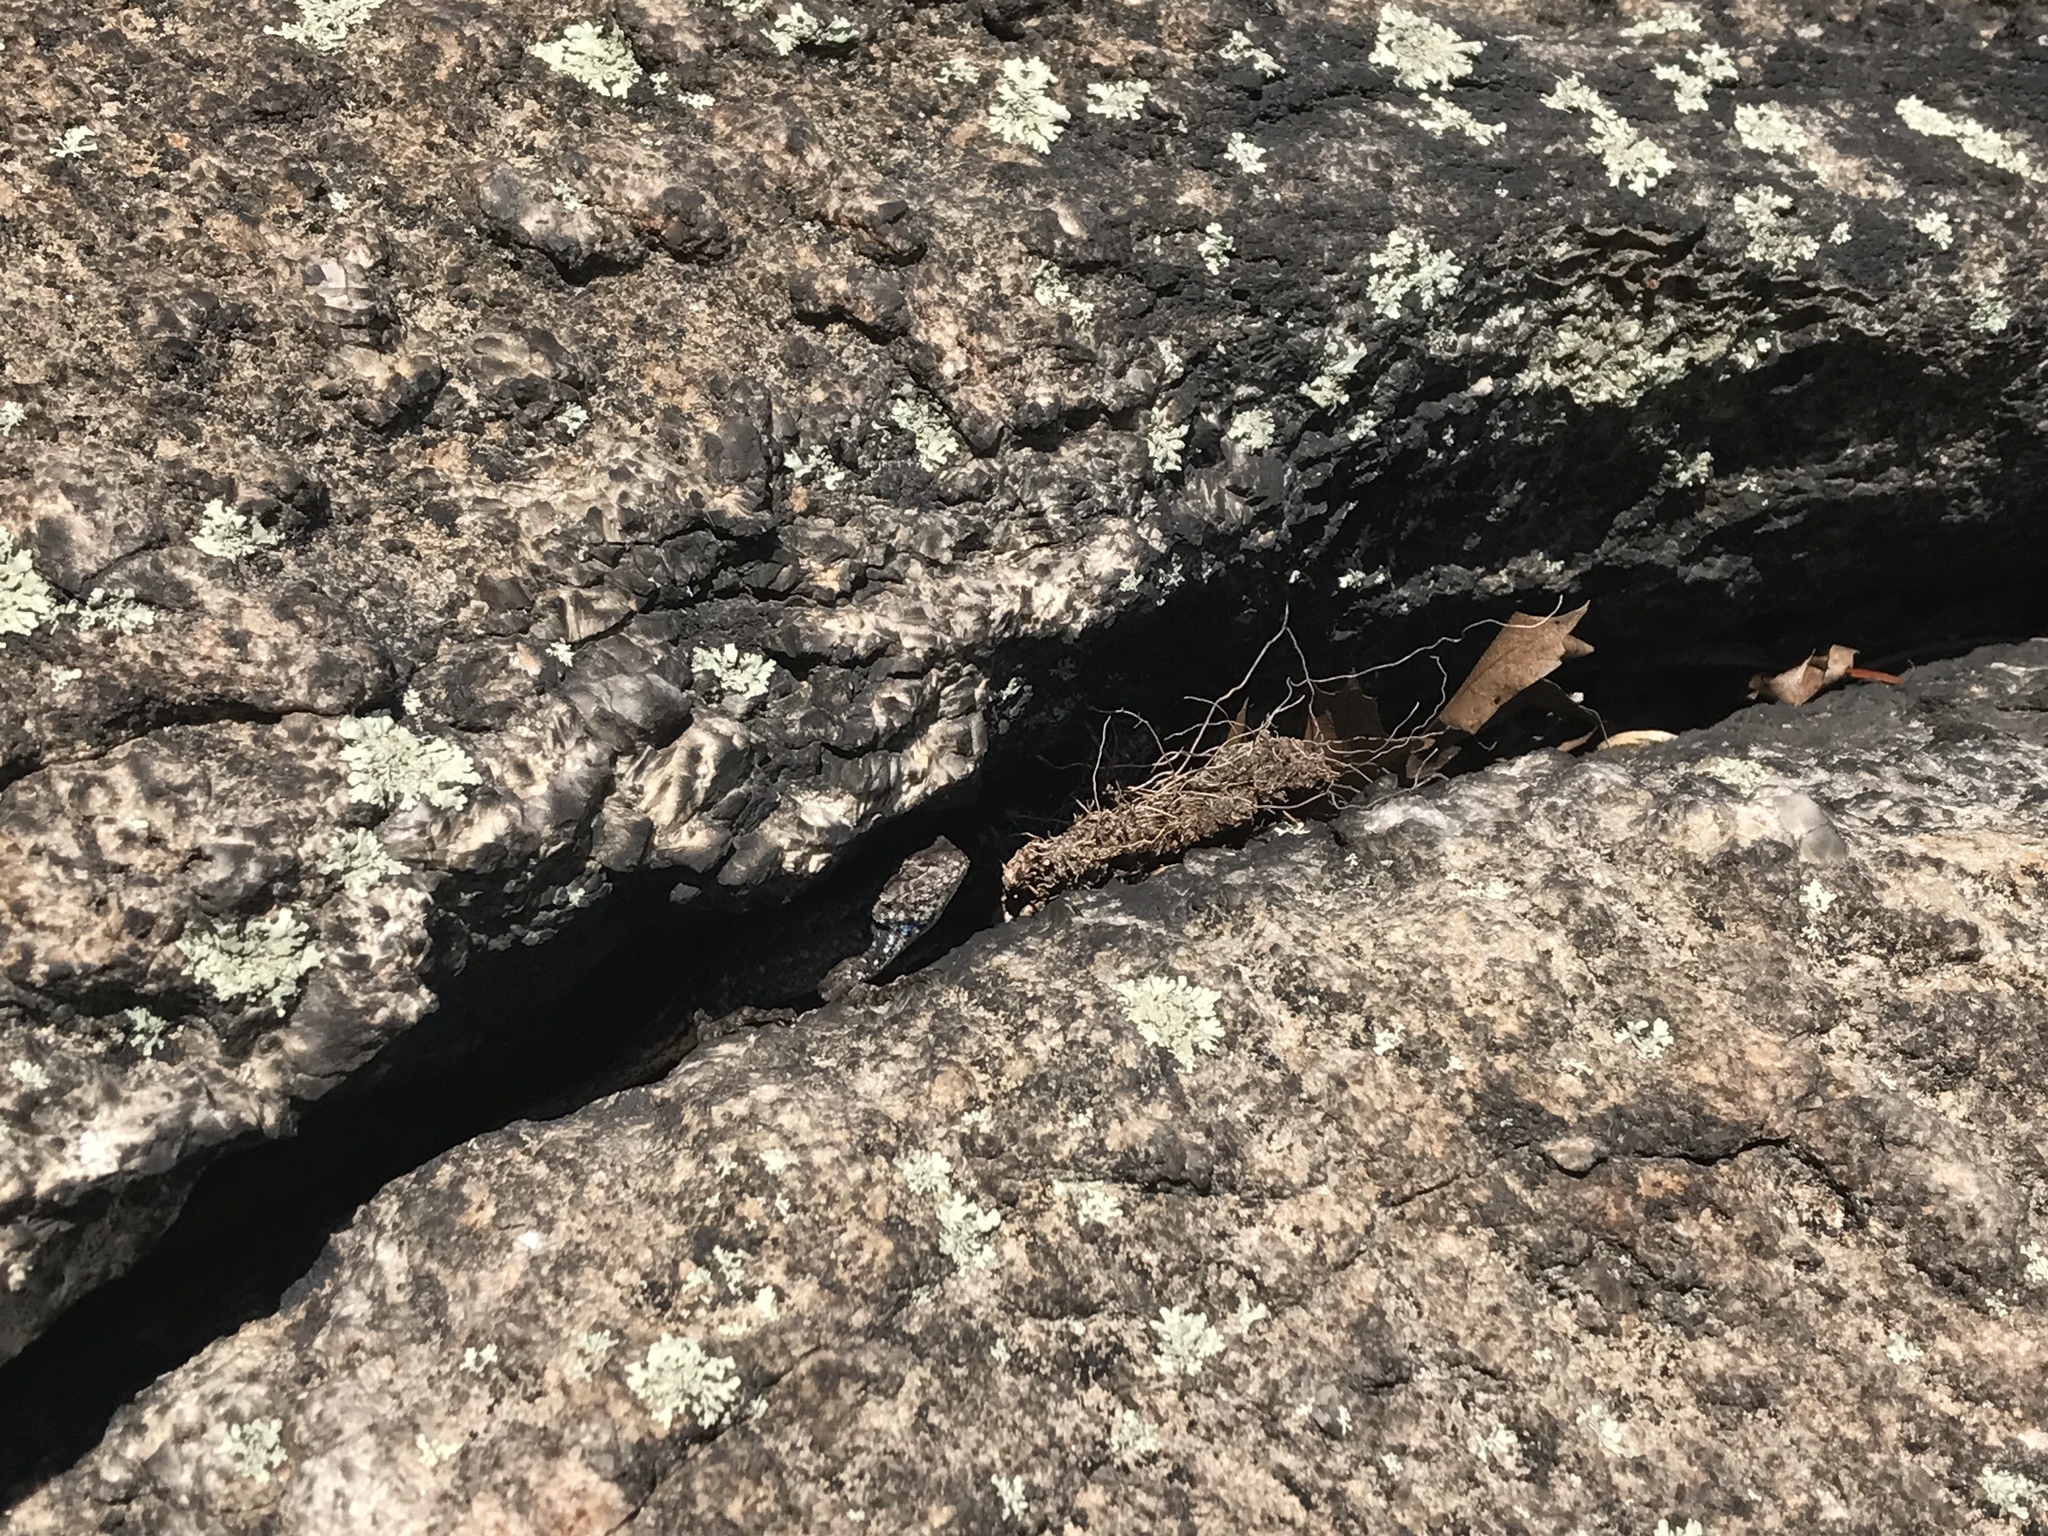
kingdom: Animalia
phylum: Chordata
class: Squamata
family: Phrynosomatidae
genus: Sceloporus
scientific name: Sceloporus undulatus
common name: Eastern fence lizard
